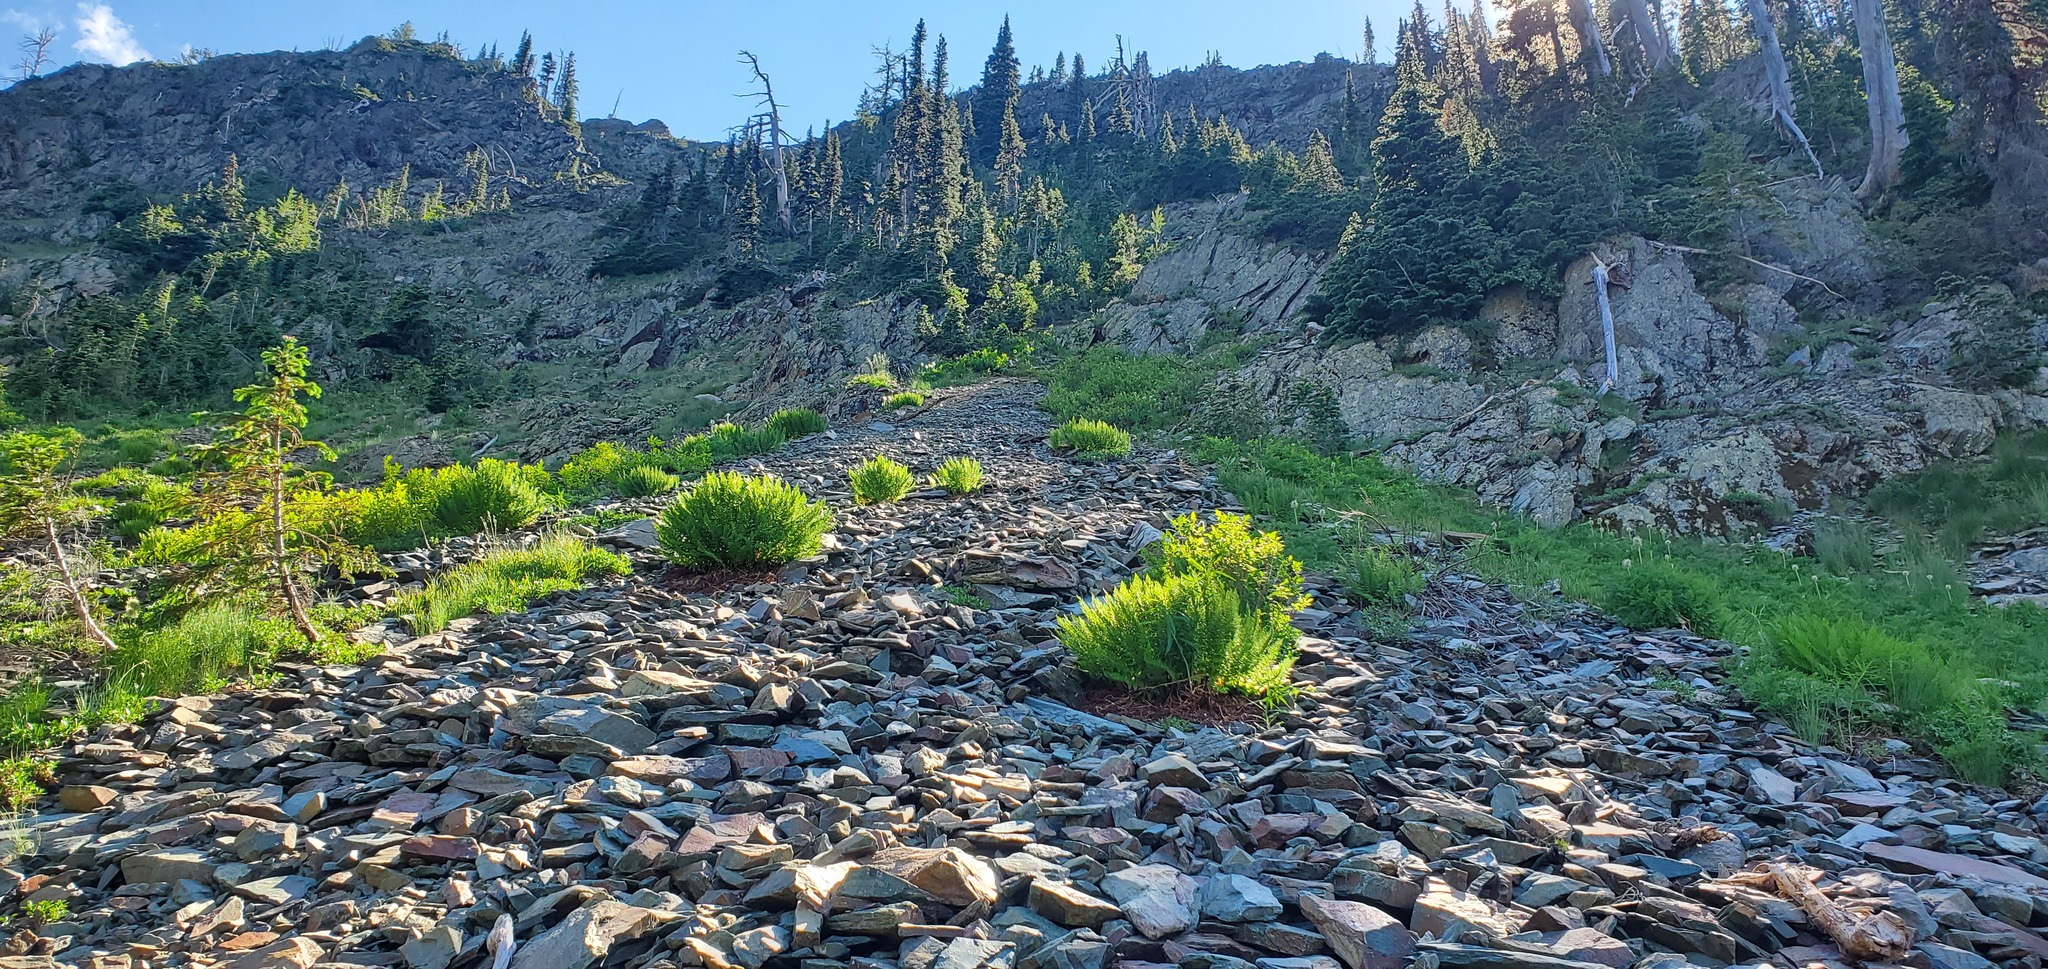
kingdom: Plantae
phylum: Tracheophyta
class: Polypodiopsida
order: Polypodiales
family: Athyriaceae
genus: Athyrium
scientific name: Athyrium americanum
